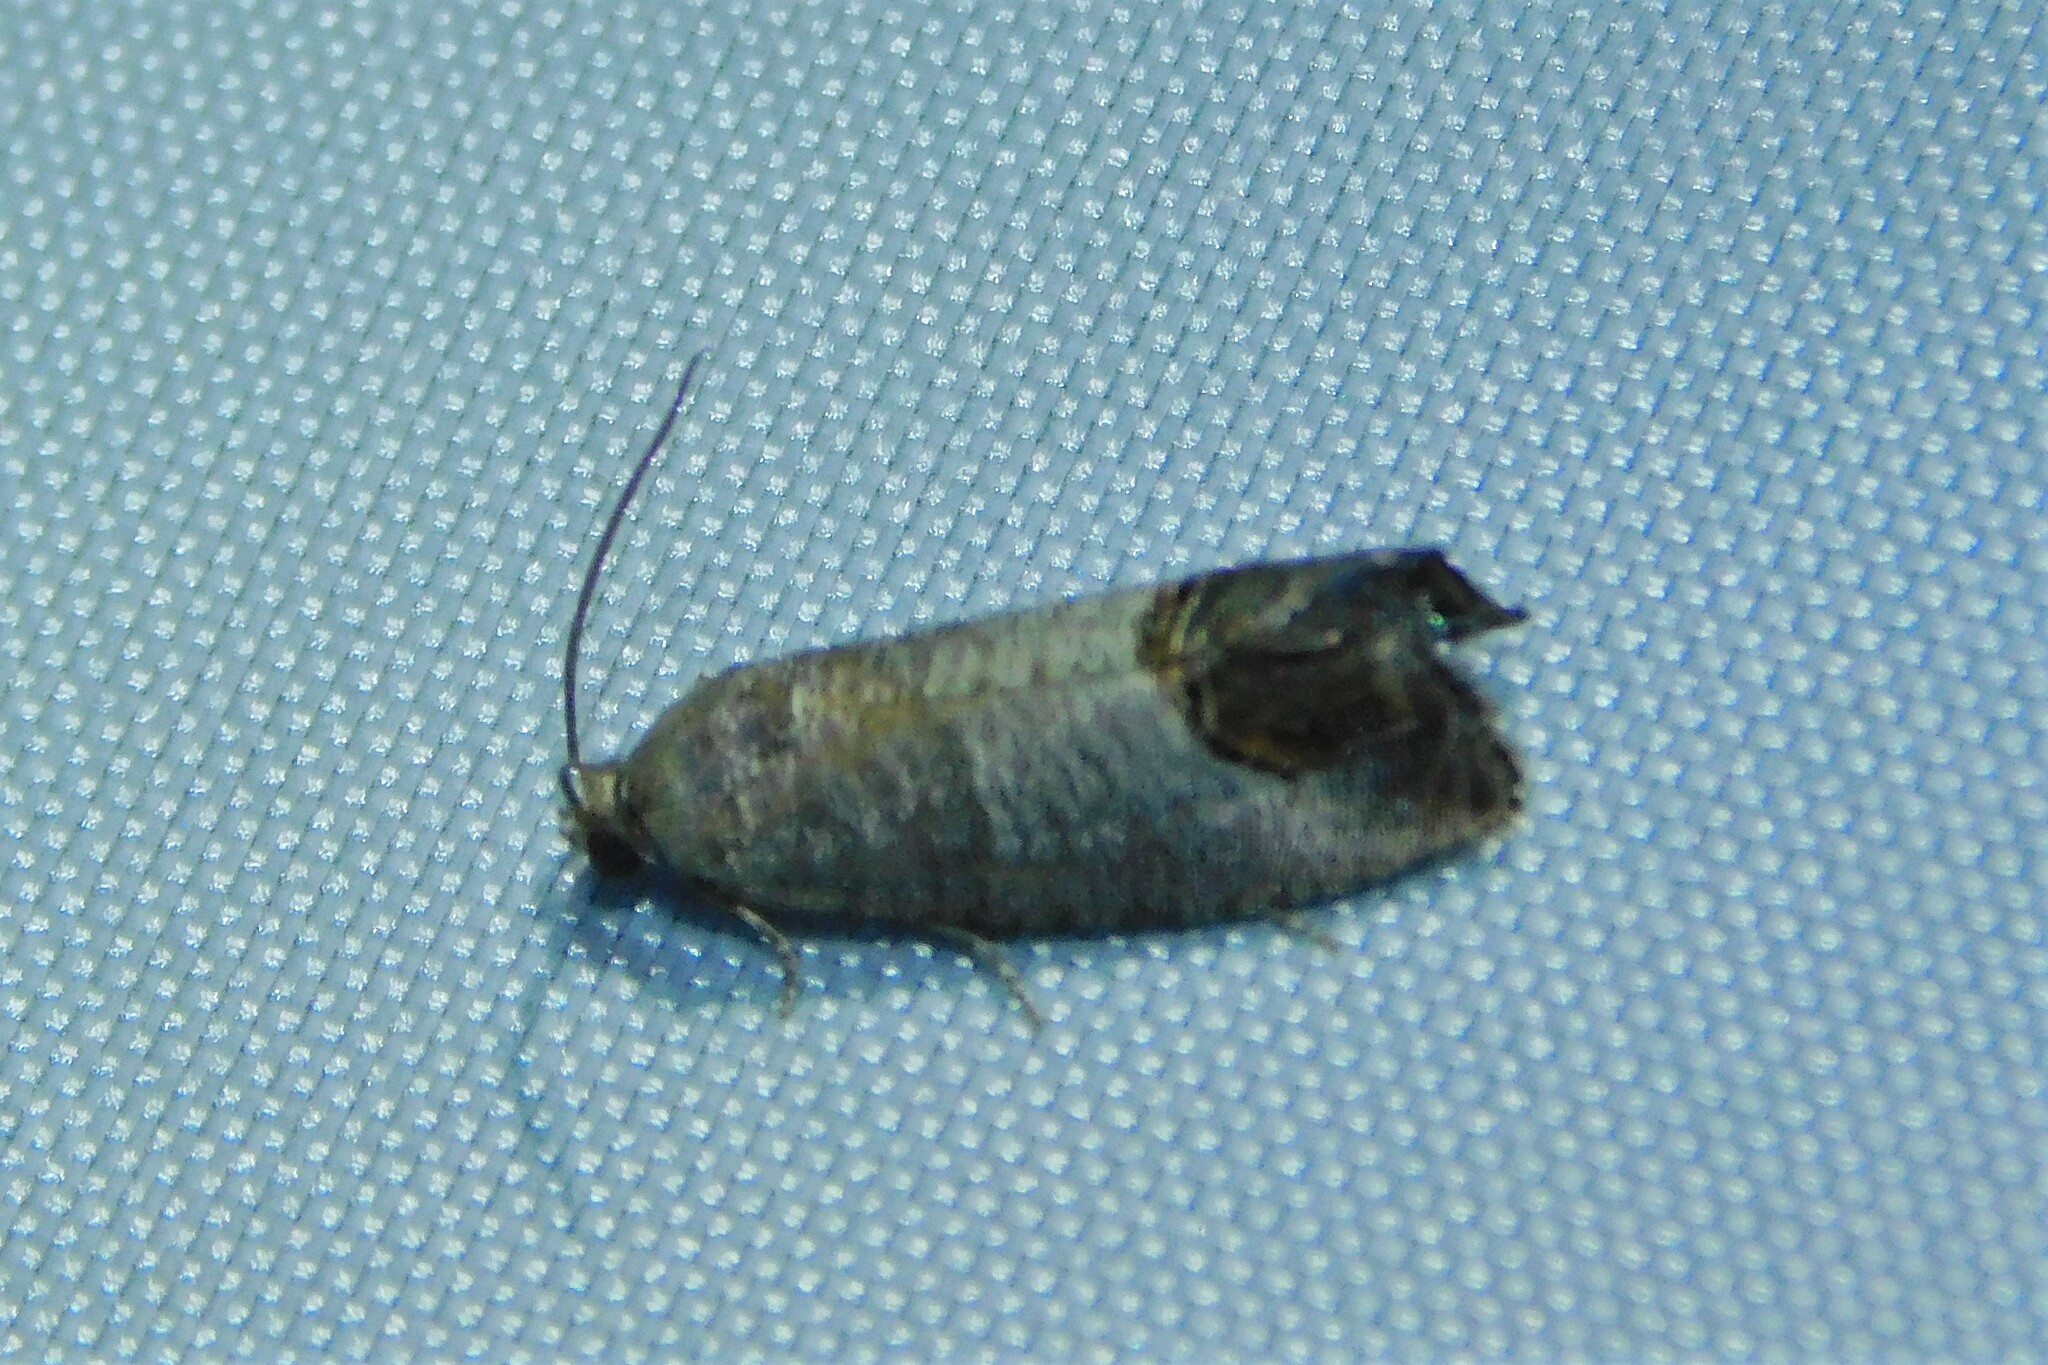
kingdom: Animalia
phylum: Arthropoda
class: Insecta
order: Lepidoptera
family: Tortricidae
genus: Cydia
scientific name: Cydia pomonella
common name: Codling moth
